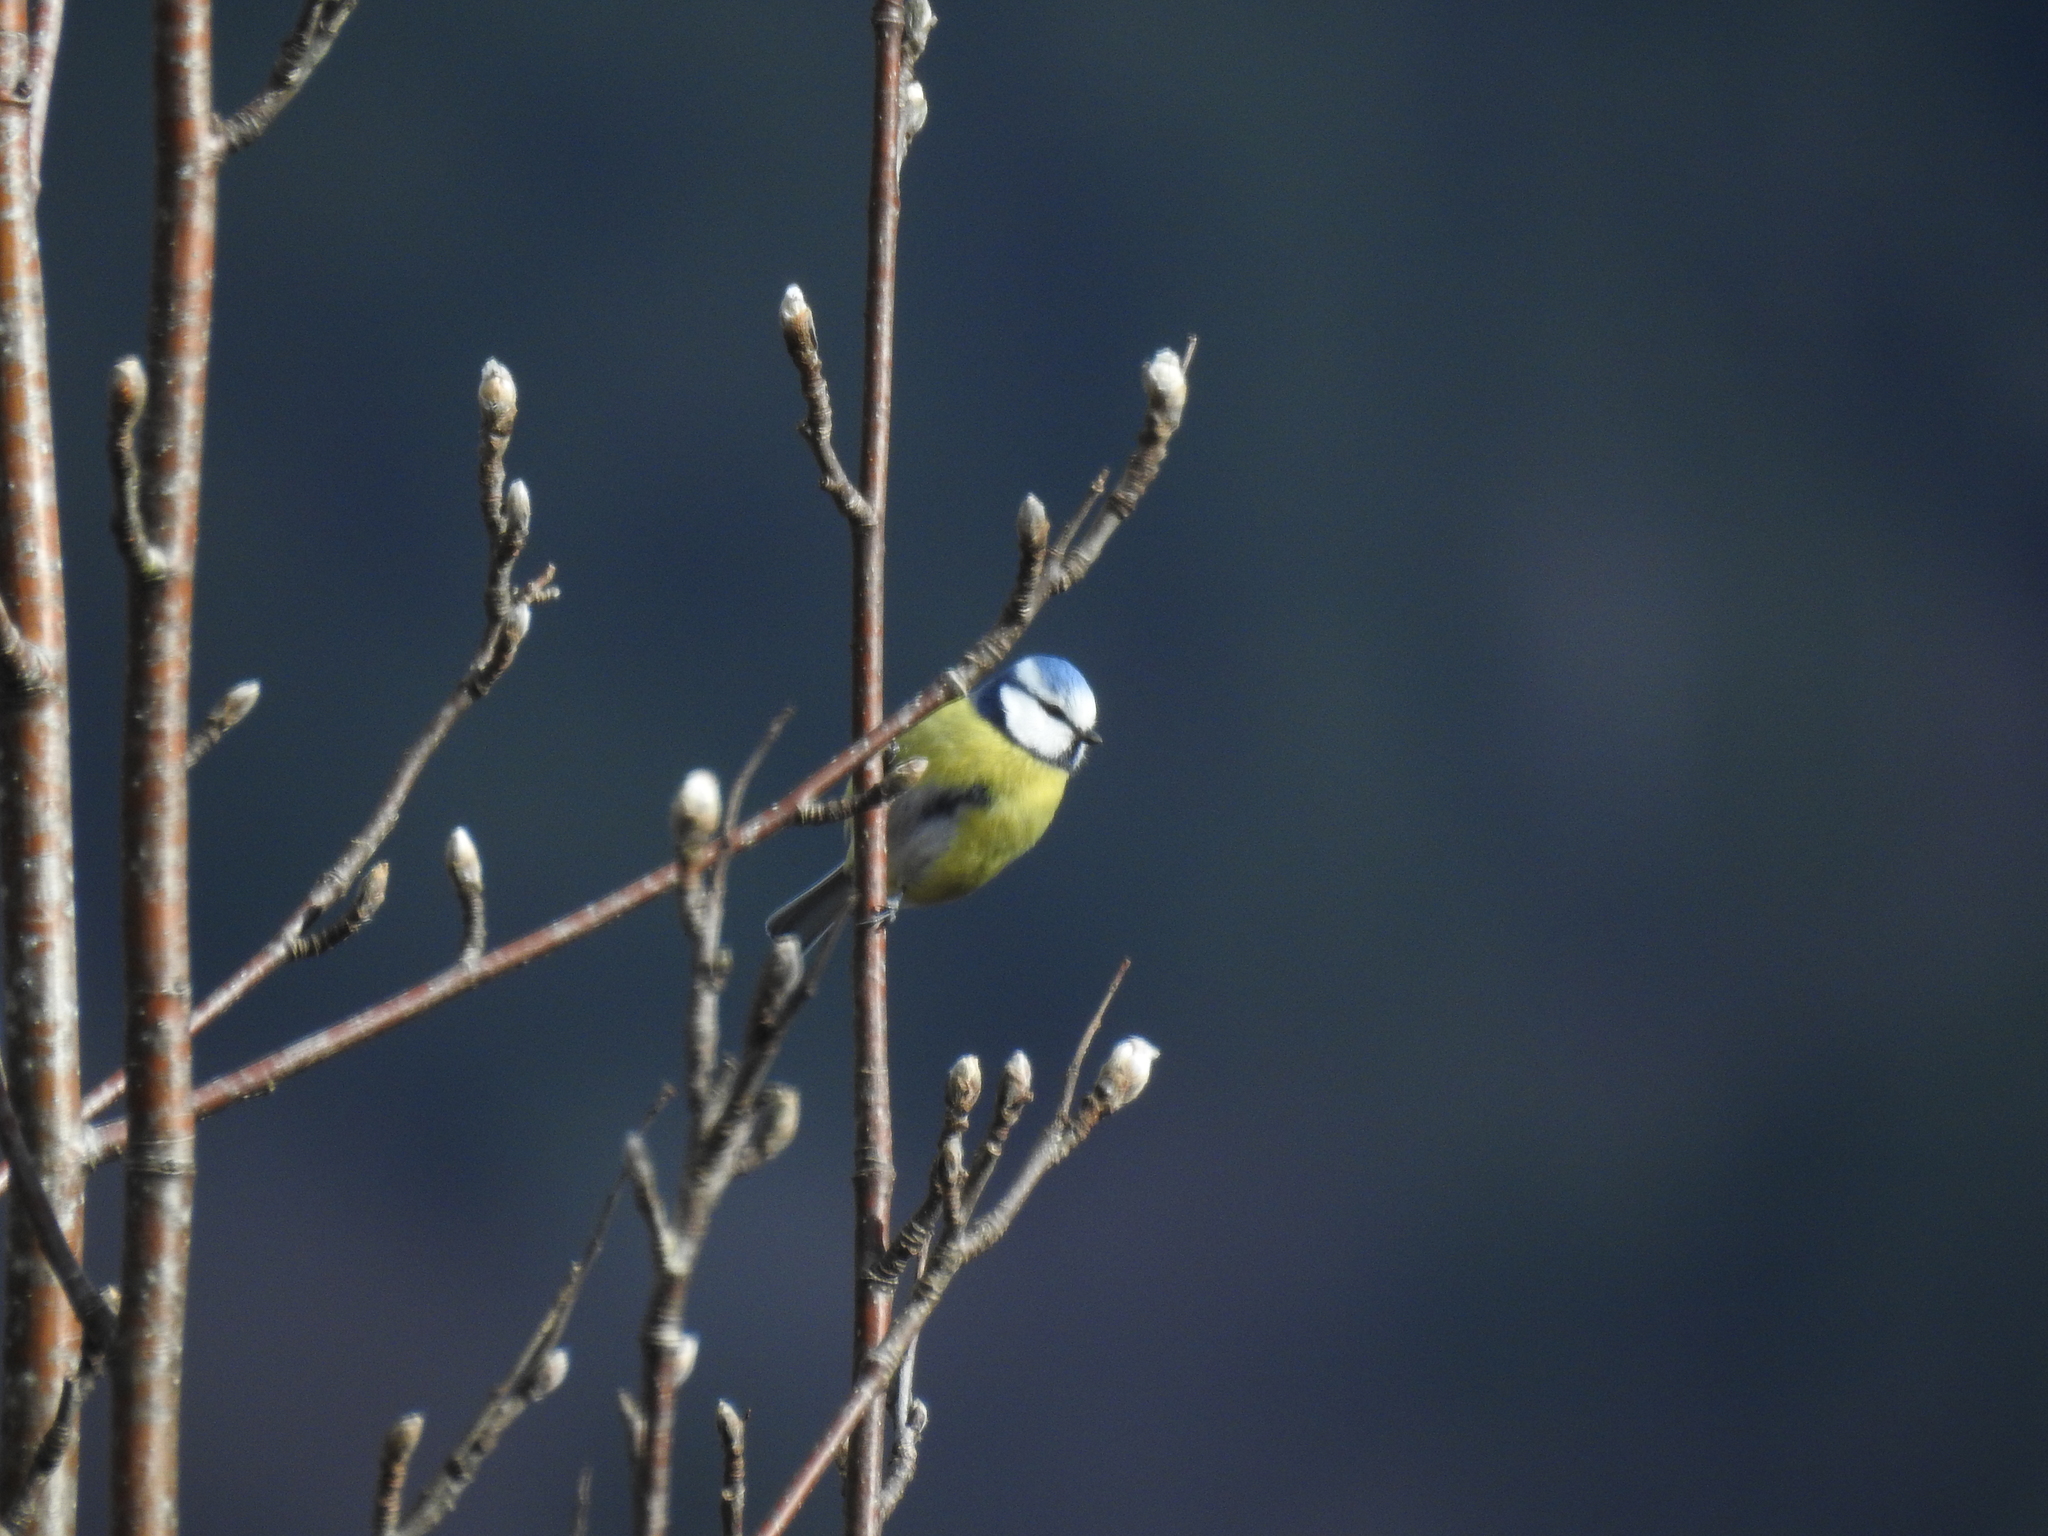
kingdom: Animalia
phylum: Chordata
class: Aves
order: Passeriformes
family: Paridae
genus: Cyanistes
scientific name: Cyanistes caeruleus
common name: Eurasian blue tit
